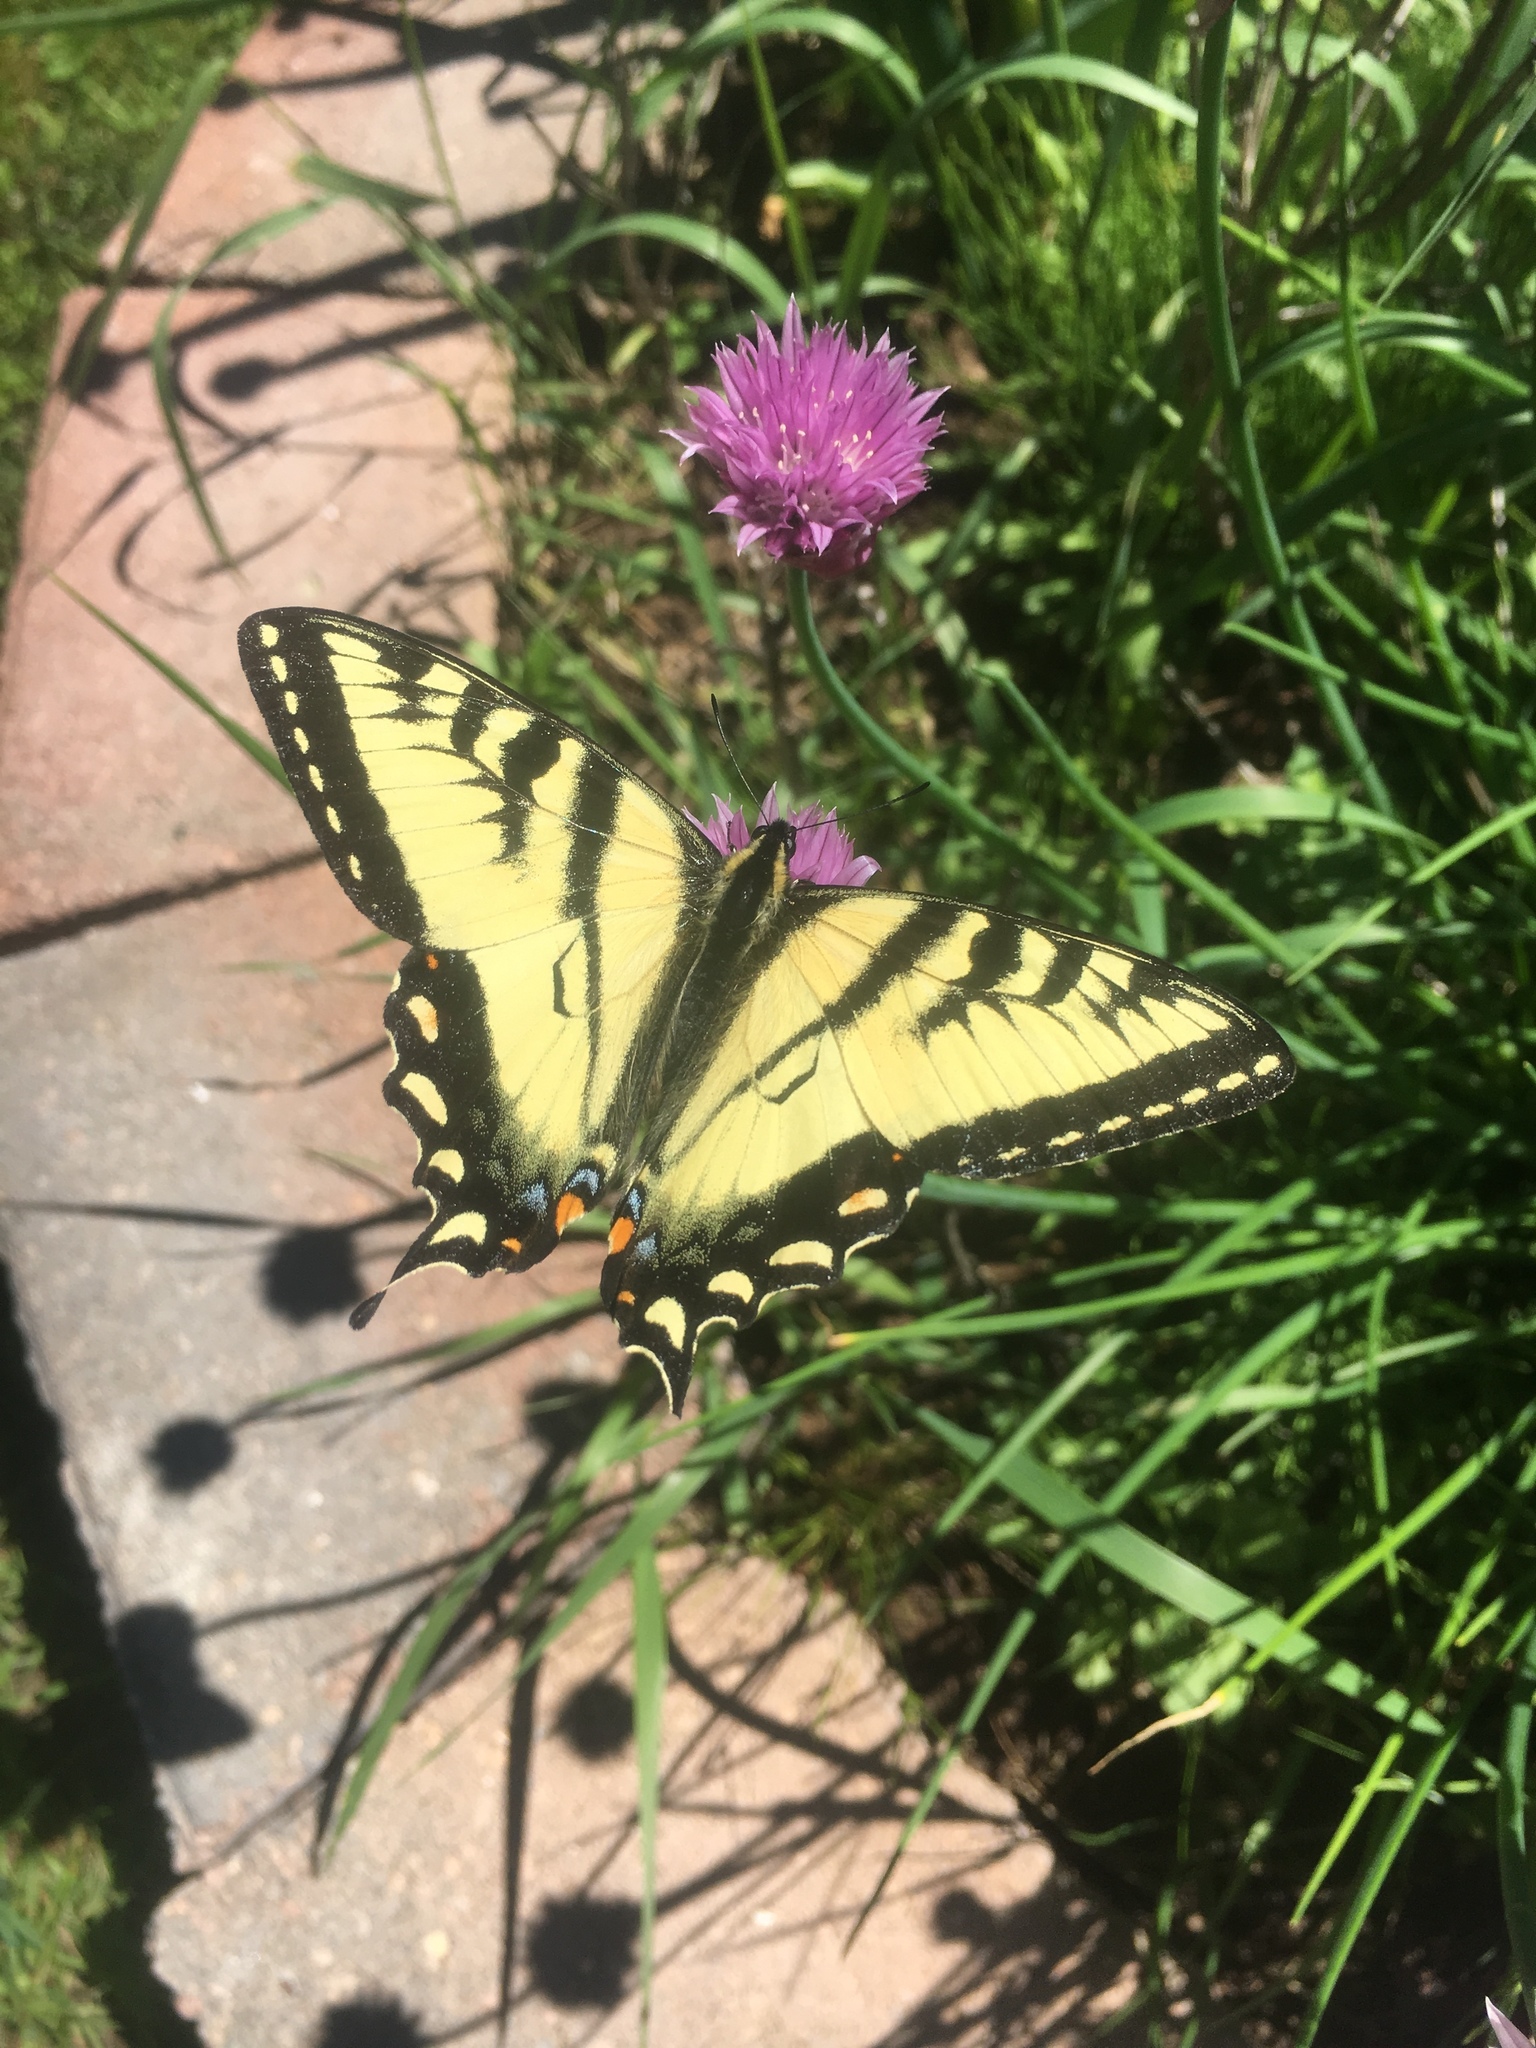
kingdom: Animalia
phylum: Arthropoda
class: Insecta
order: Lepidoptera
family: Papilionidae
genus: Papilio
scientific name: Papilio canadensis
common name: Canadian tiger swallowtail
